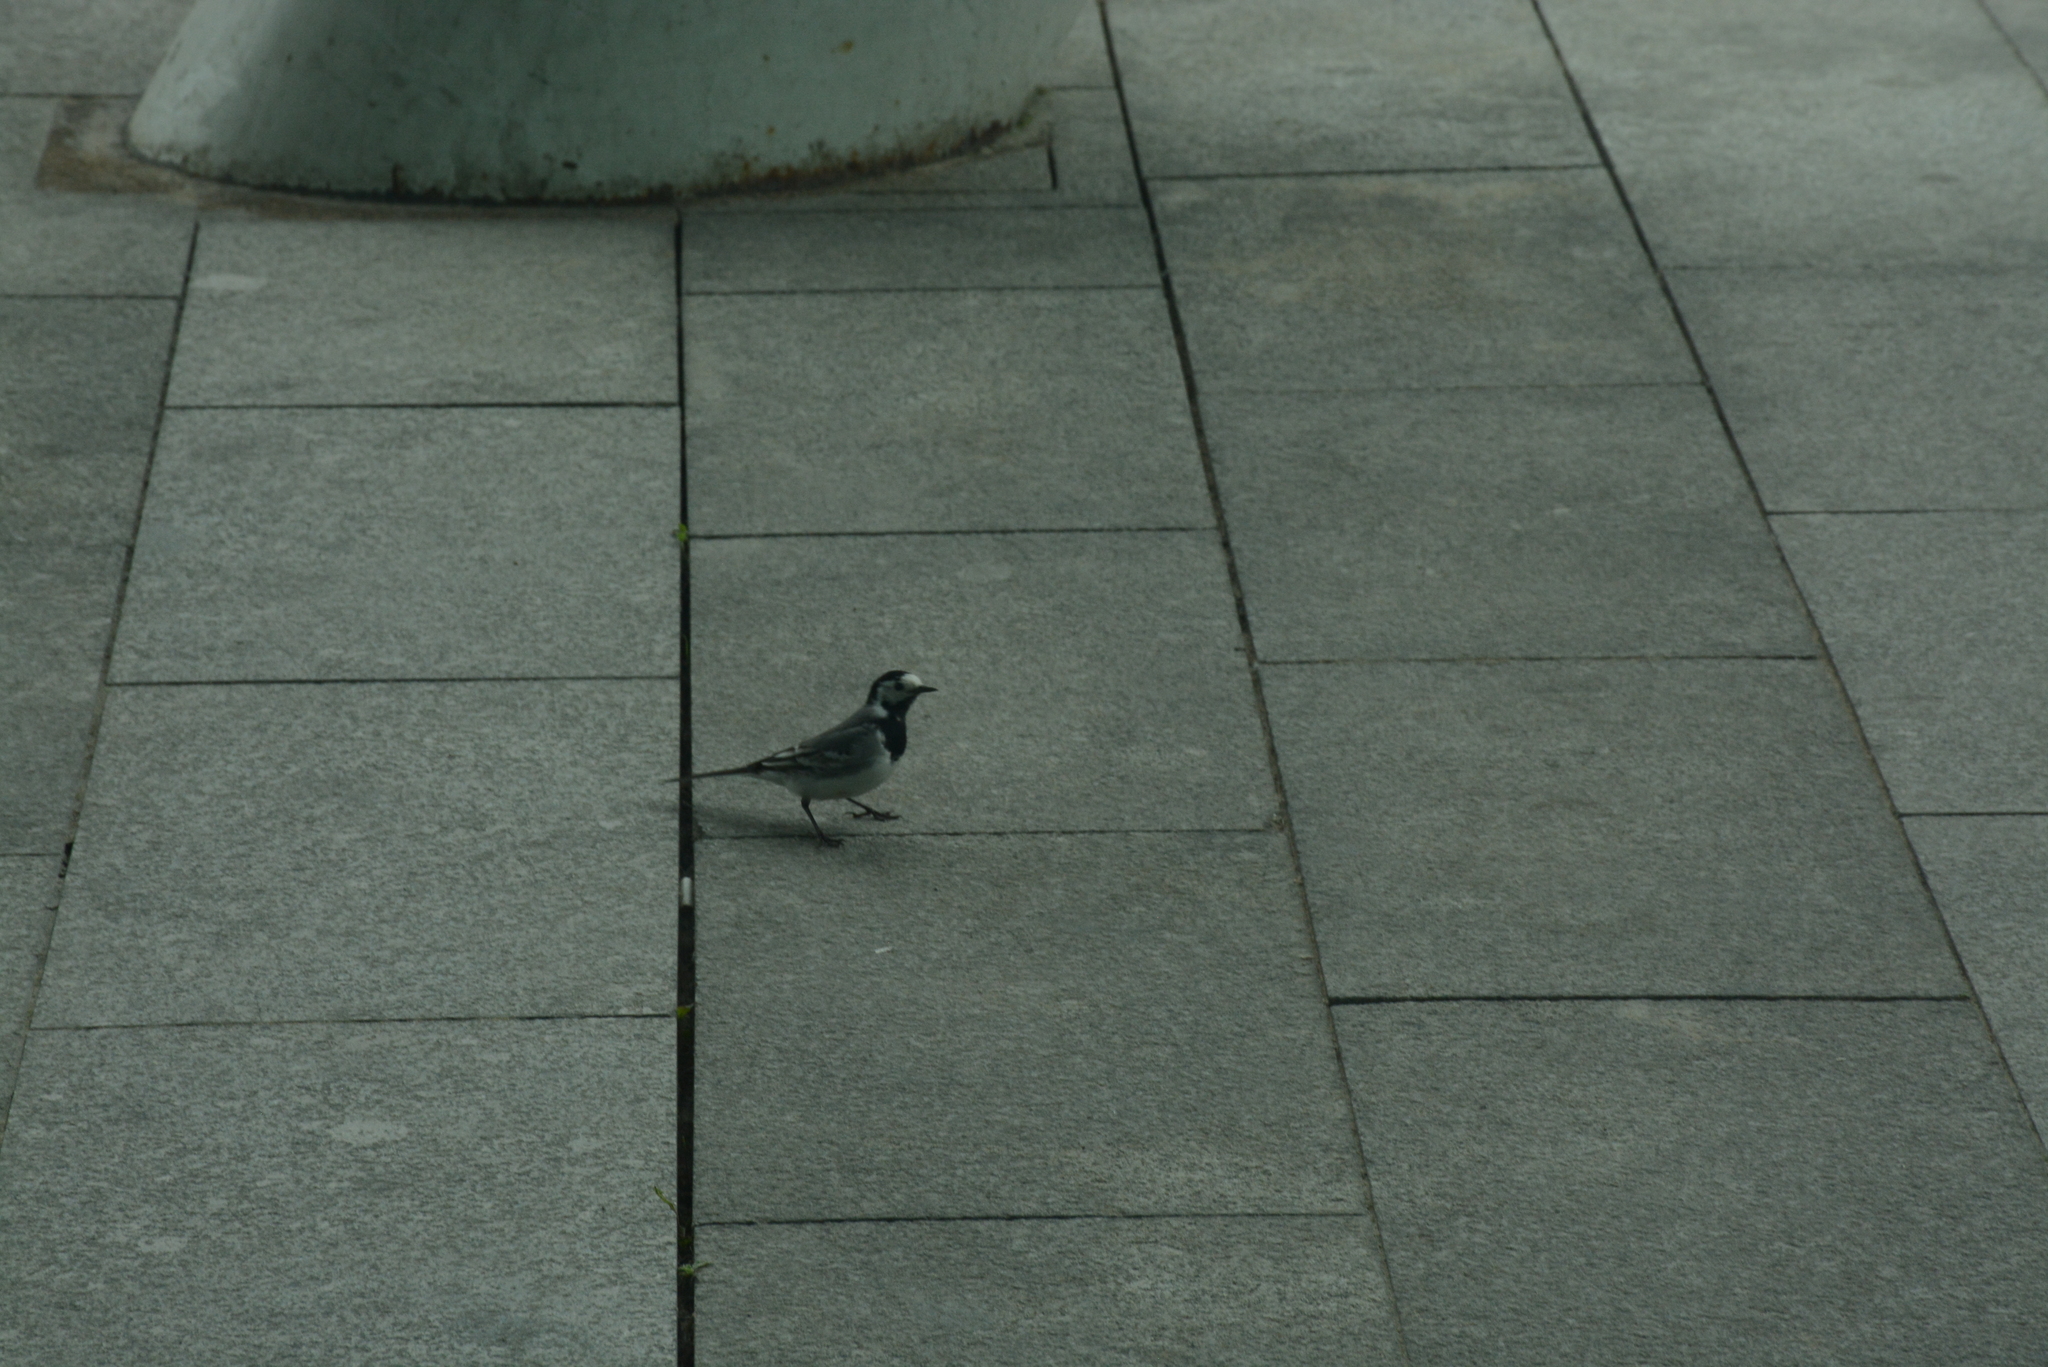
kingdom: Animalia
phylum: Chordata
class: Aves
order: Passeriformes
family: Motacillidae
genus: Motacilla
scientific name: Motacilla alba
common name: White wagtail
